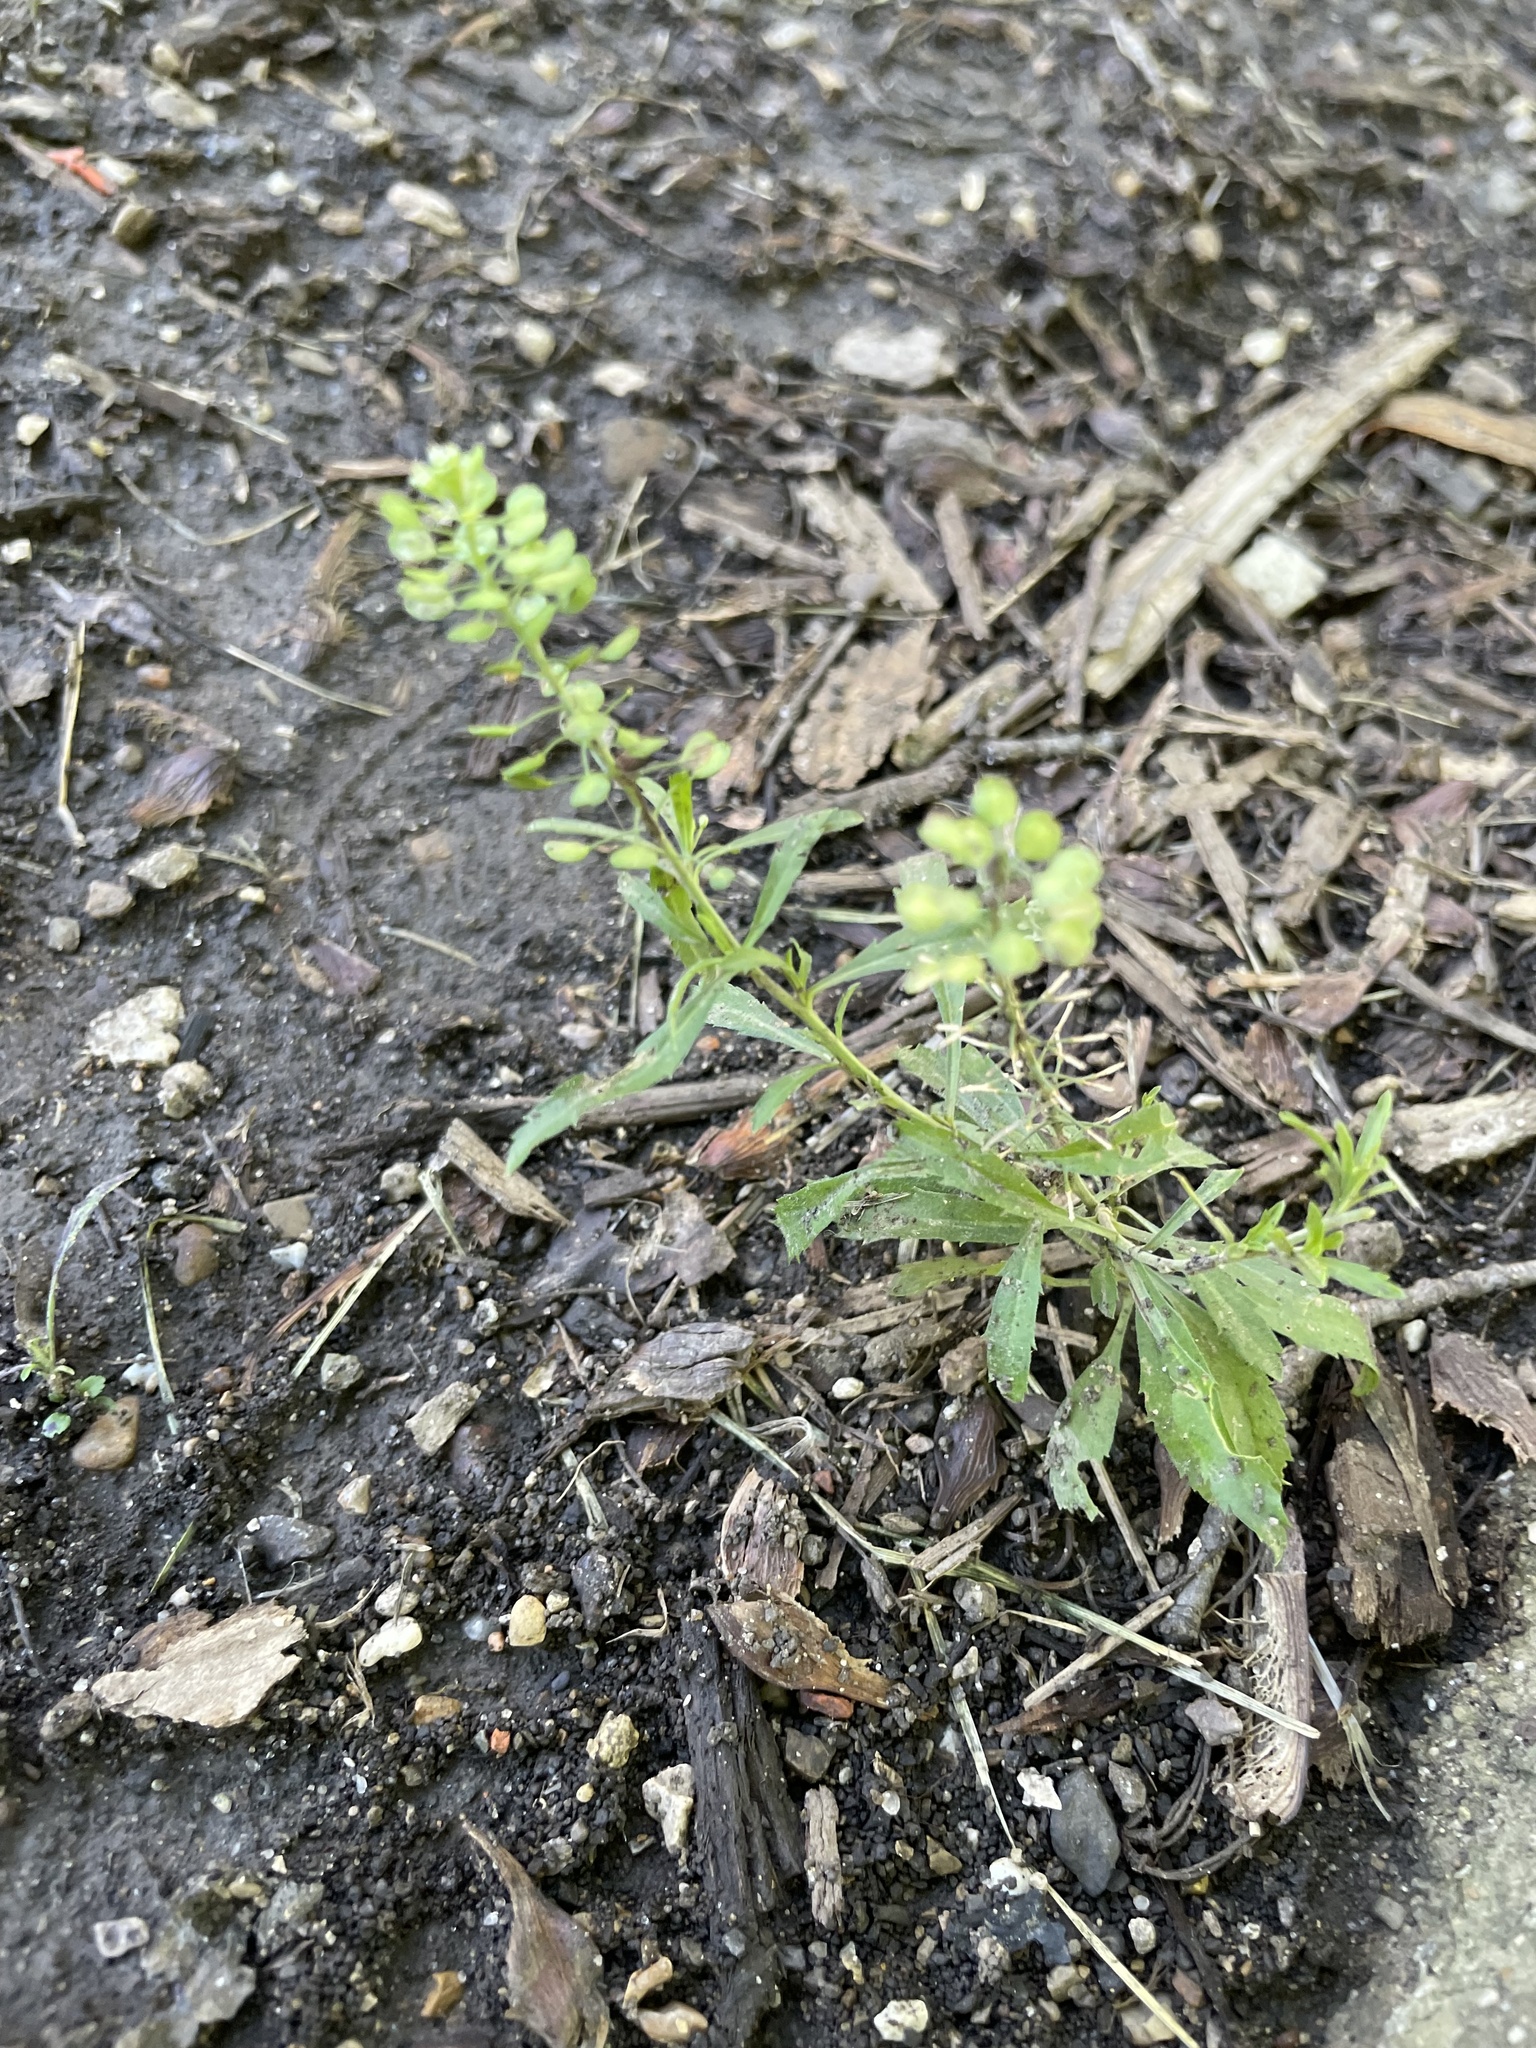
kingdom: Plantae
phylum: Tracheophyta
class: Magnoliopsida
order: Brassicales
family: Brassicaceae
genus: Lepidium
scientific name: Lepidium virginicum
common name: Least pepperwort
